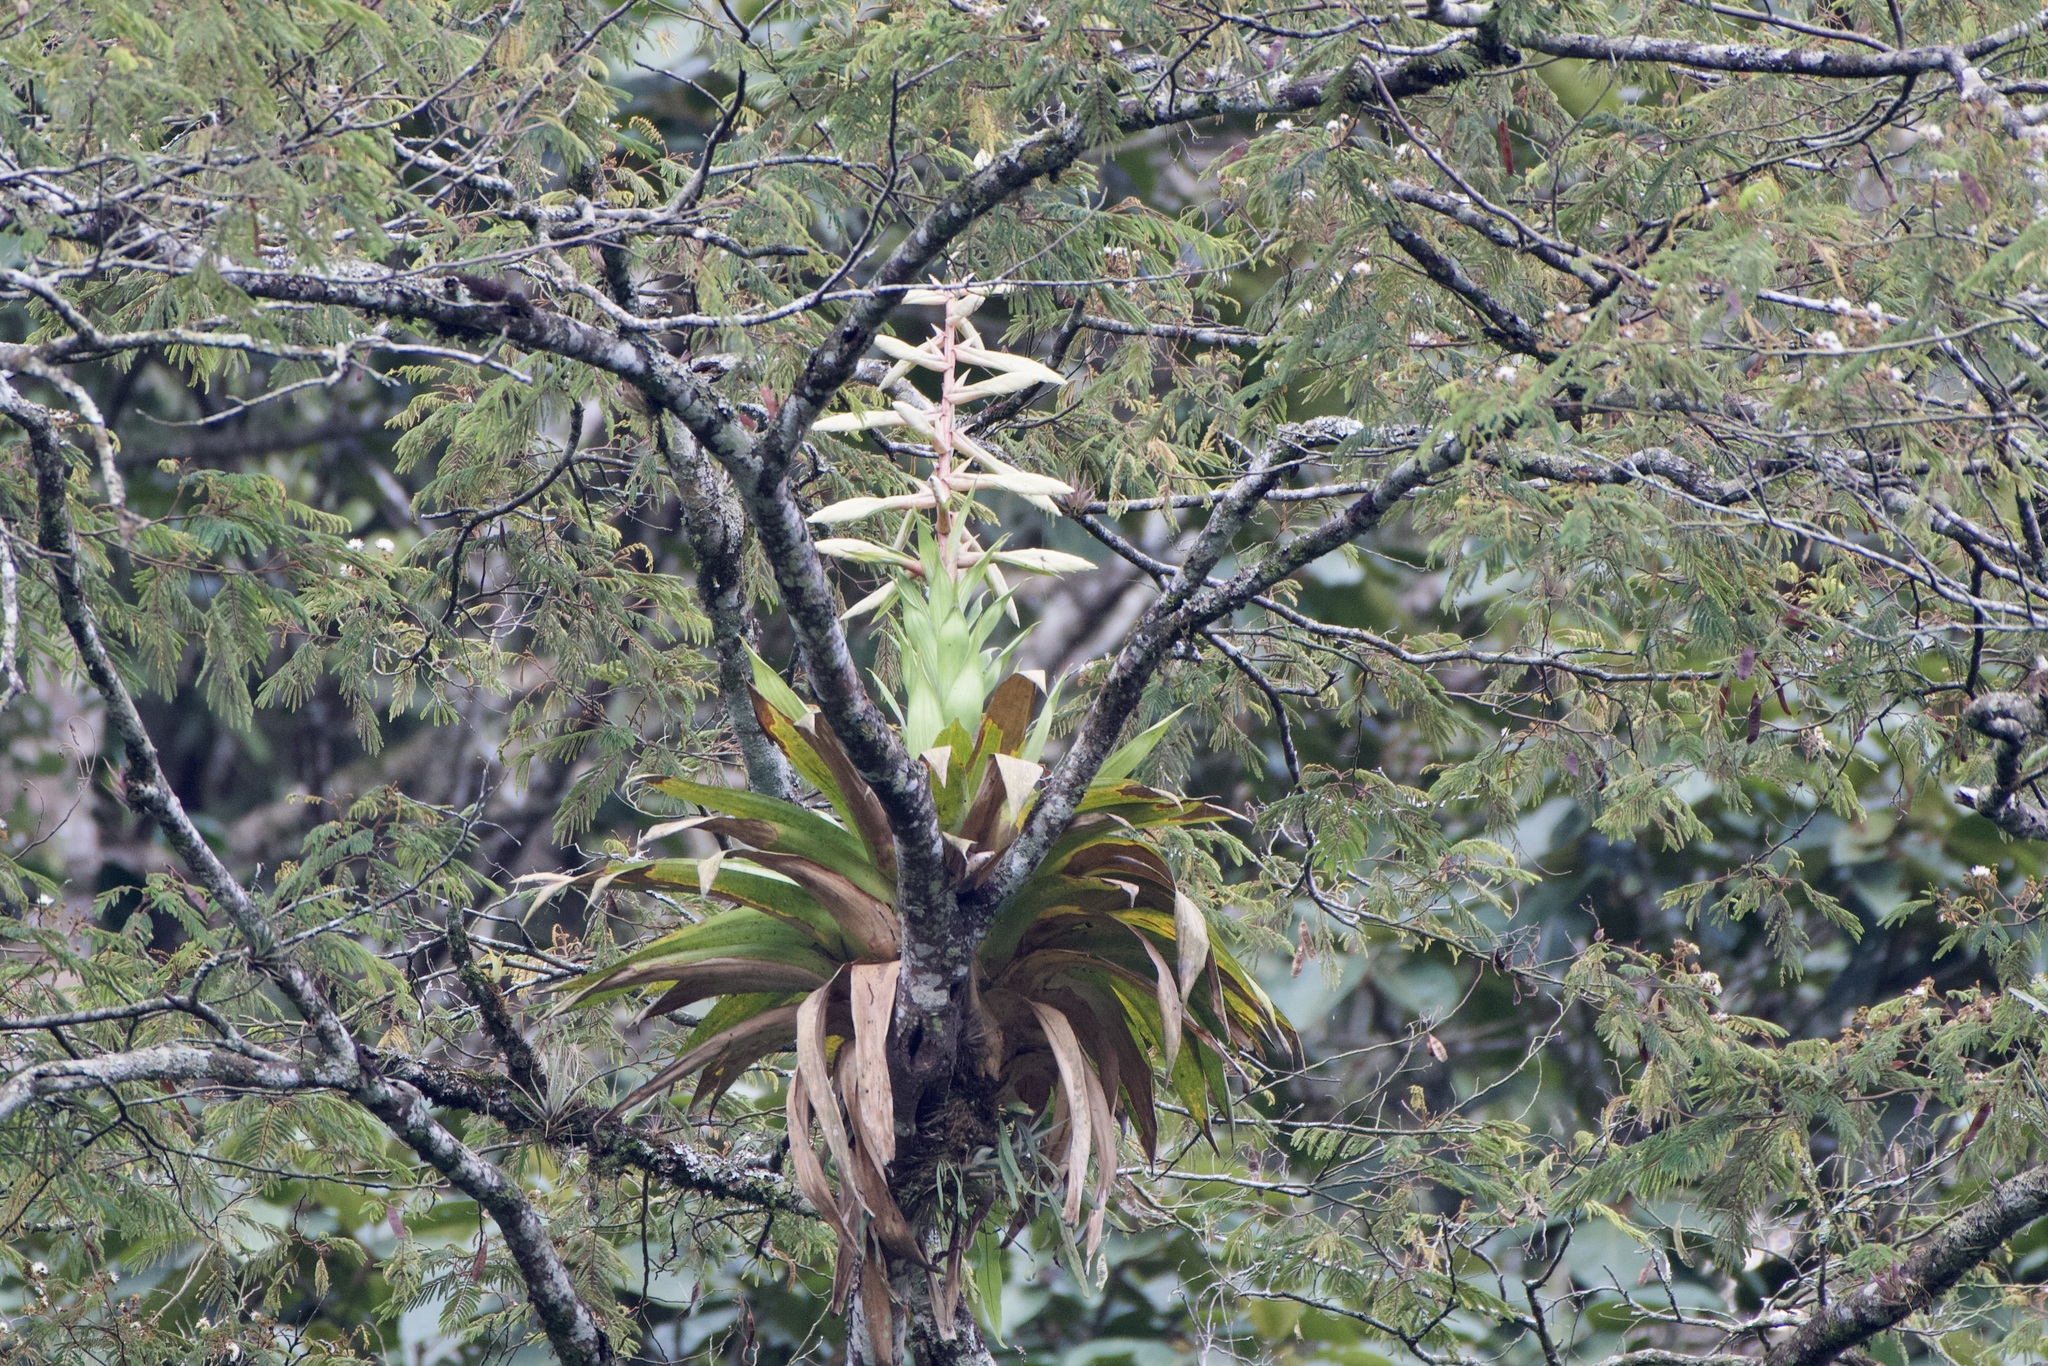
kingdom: Plantae
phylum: Tracheophyta
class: Liliopsida
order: Poales
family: Bromeliaceae
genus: Tillandsia
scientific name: Tillandsia fendleri
